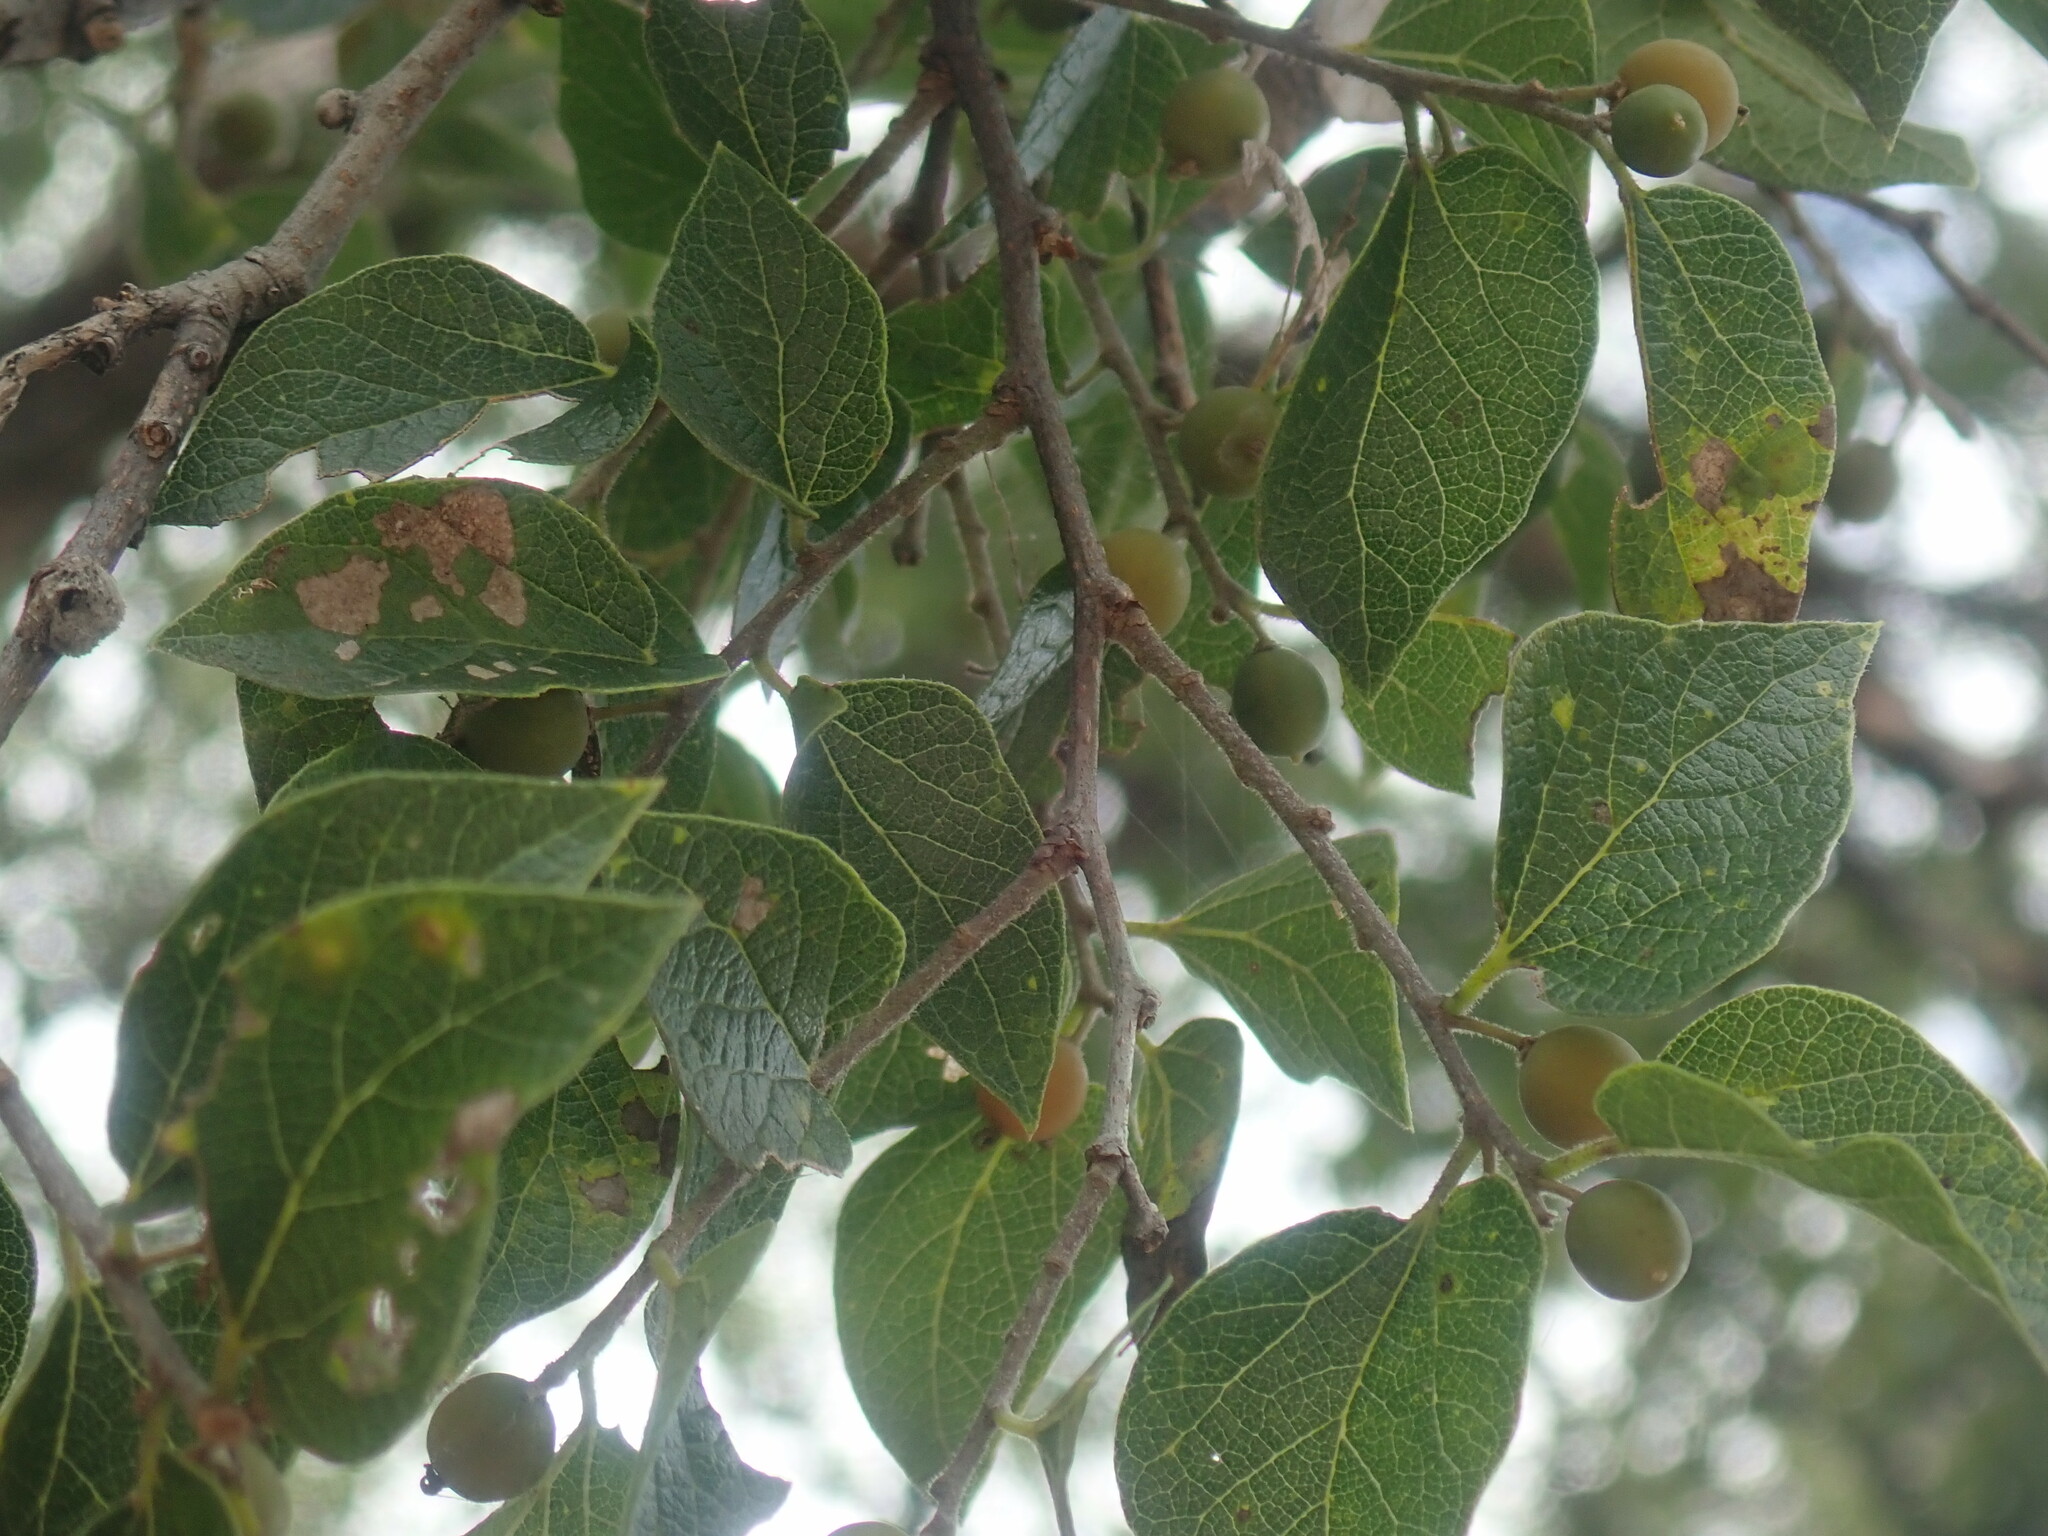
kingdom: Plantae
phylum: Tracheophyta
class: Magnoliopsida
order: Rosales
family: Cannabaceae
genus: Celtis
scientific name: Celtis reticulata
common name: Netleaf hackberry
